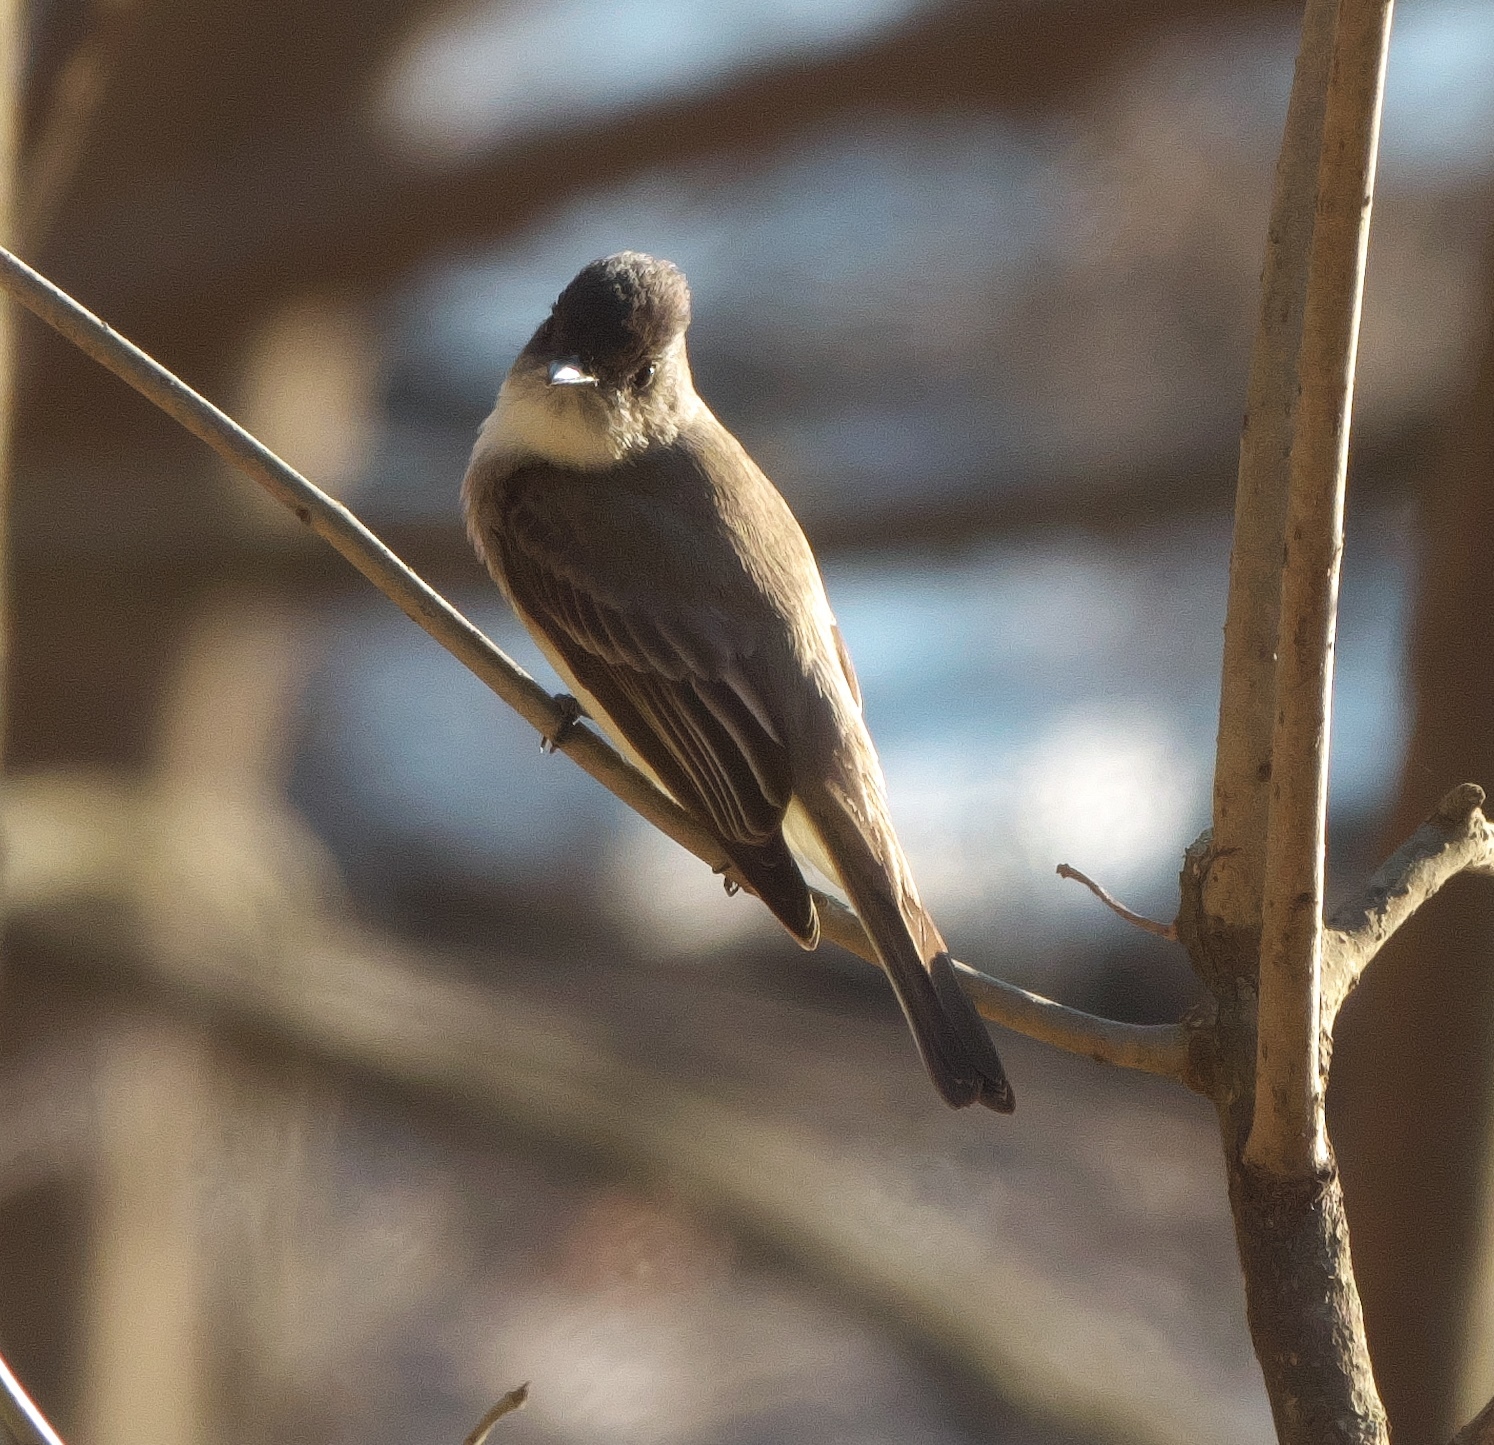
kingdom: Animalia
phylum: Chordata
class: Aves
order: Passeriformes
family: Tyrannidae
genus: Sayornis
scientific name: Sayornis phoebe
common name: Eastern phoebe
